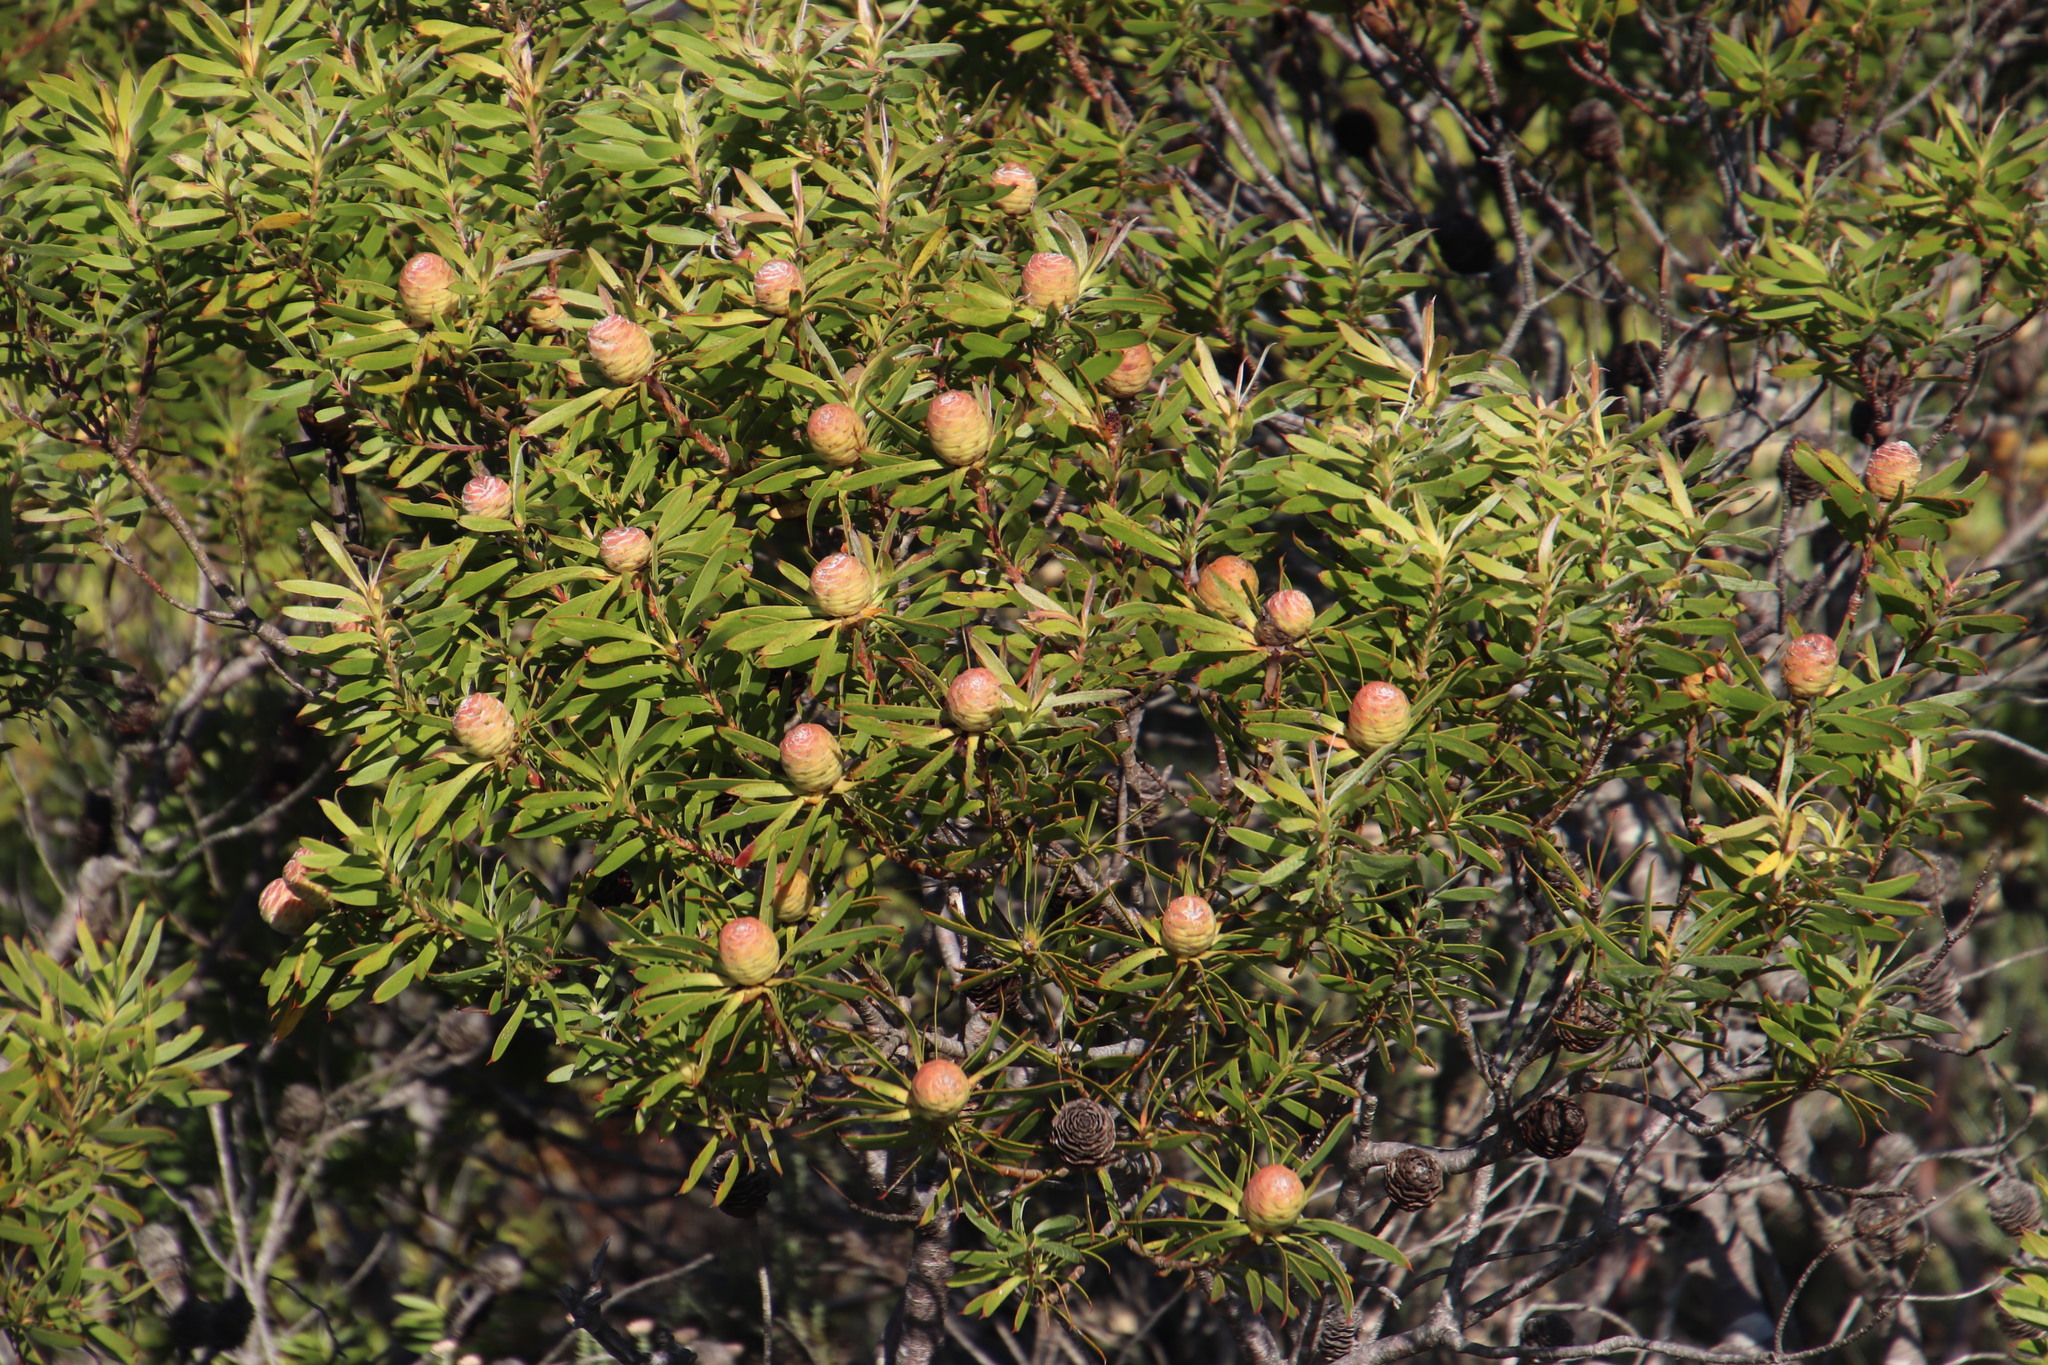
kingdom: Plantae
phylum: Tracheophyta
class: Magnoliopsida
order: Proteales
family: Proteaceae
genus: Leucadendron
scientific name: Leucadendron coniferum
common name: Dune conebush
